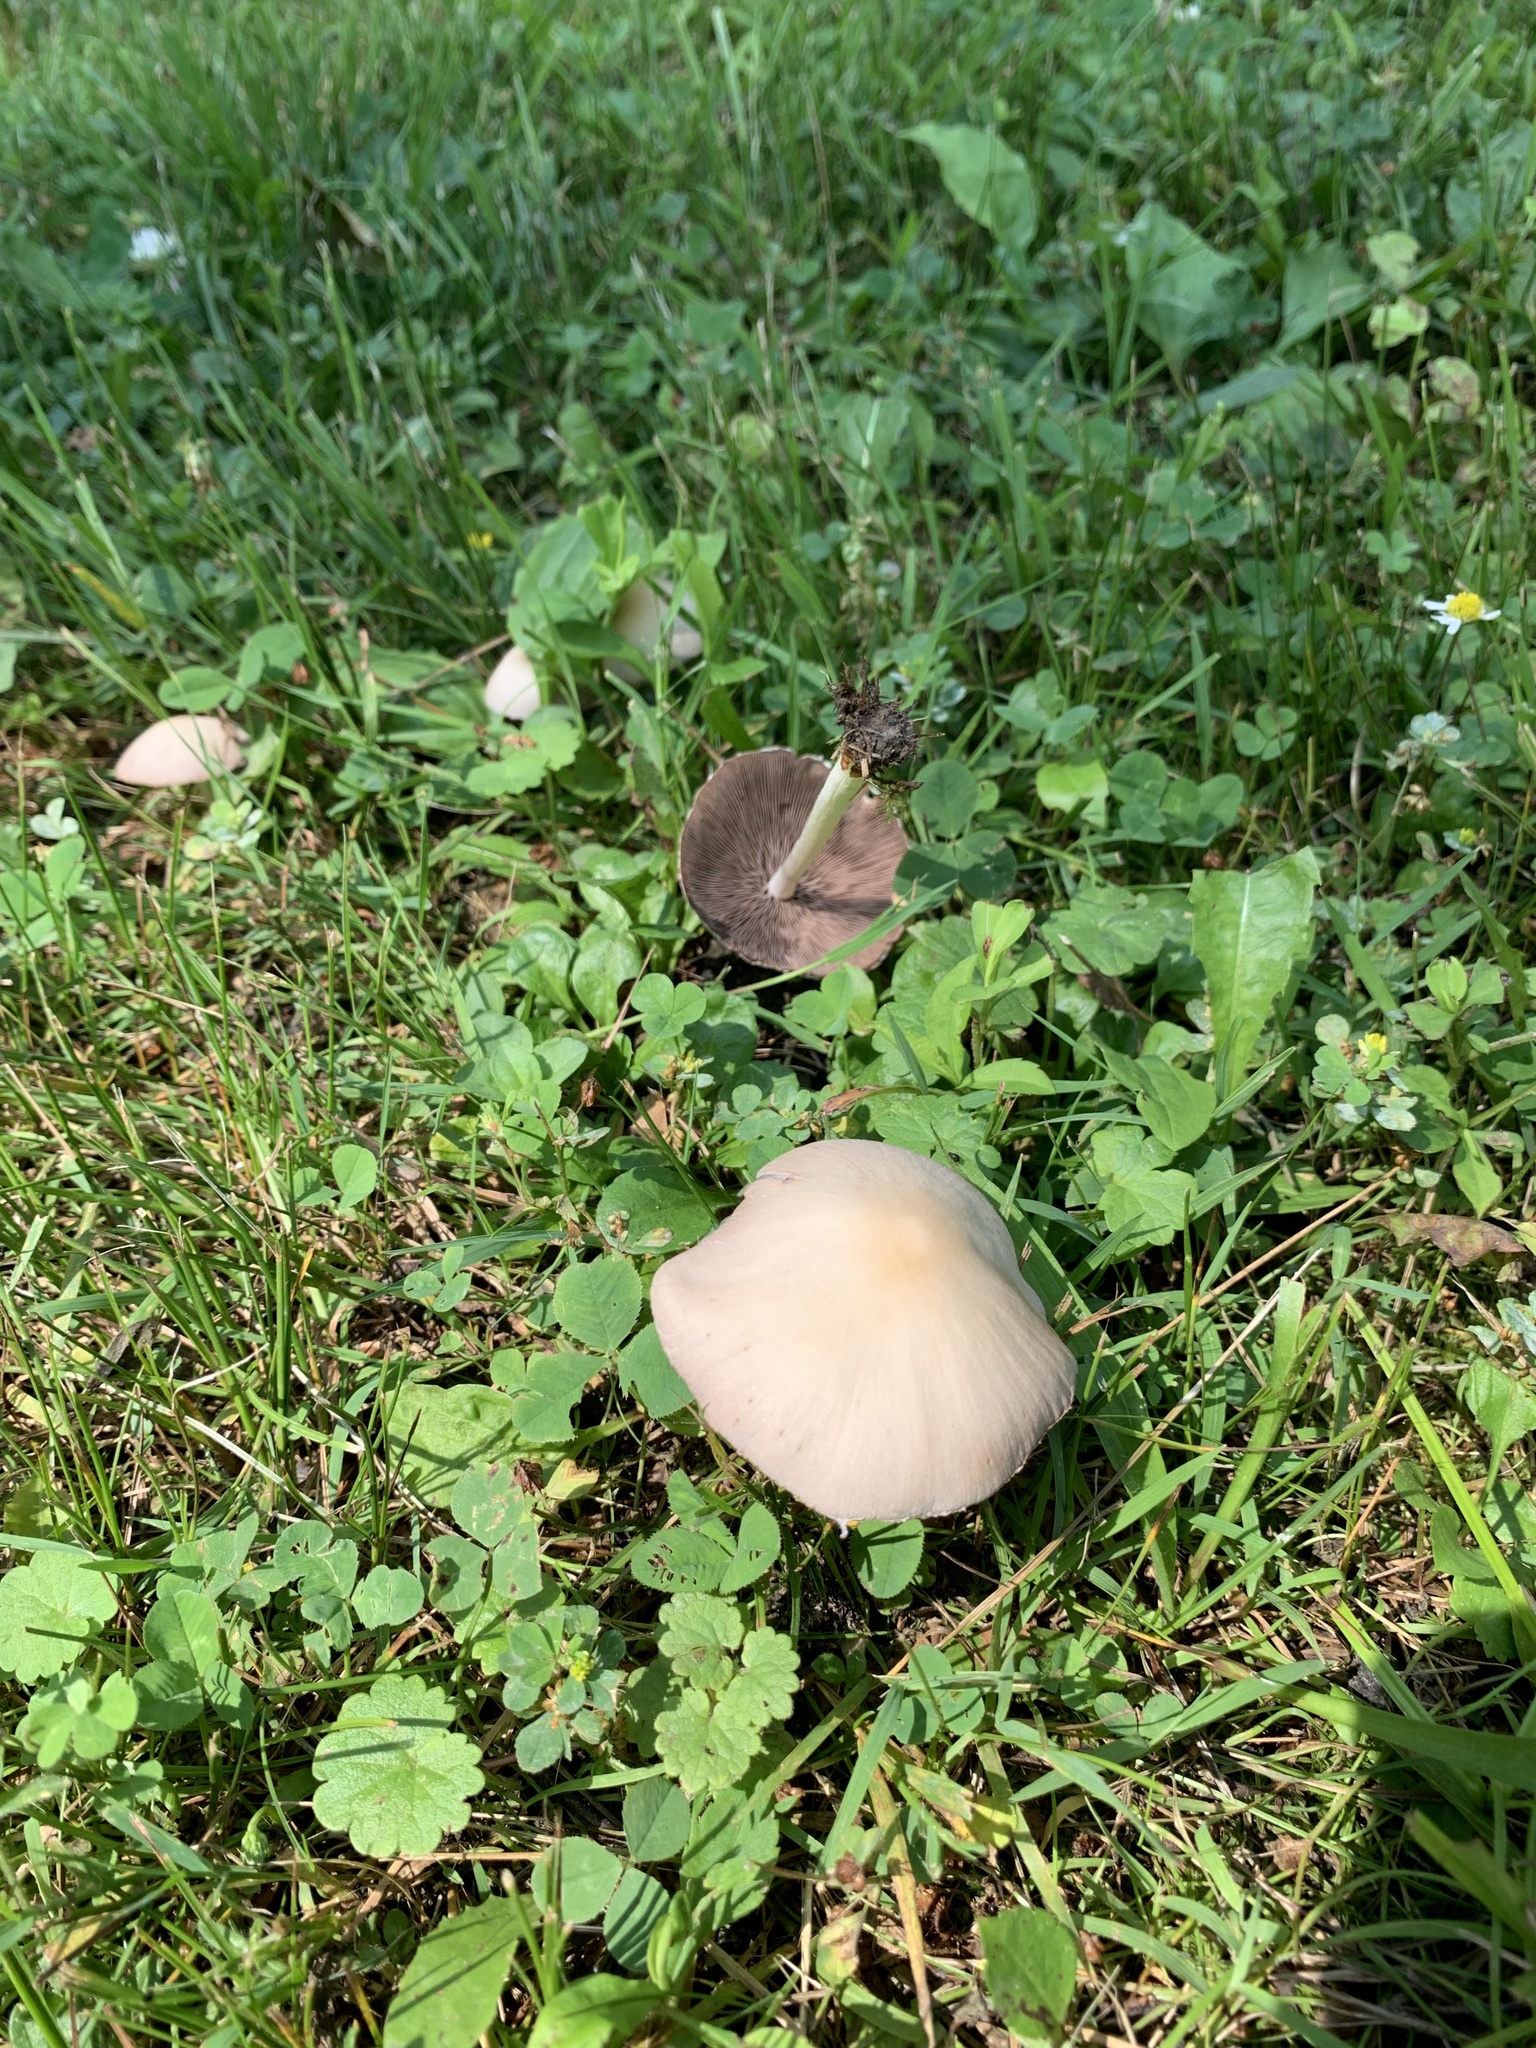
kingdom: Fungi
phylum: Basidiomycota
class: Agaricomycetes
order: Agaricales
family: Psathyrellaceae
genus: Candolleomyces
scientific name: Candolleomyces candolleanus
